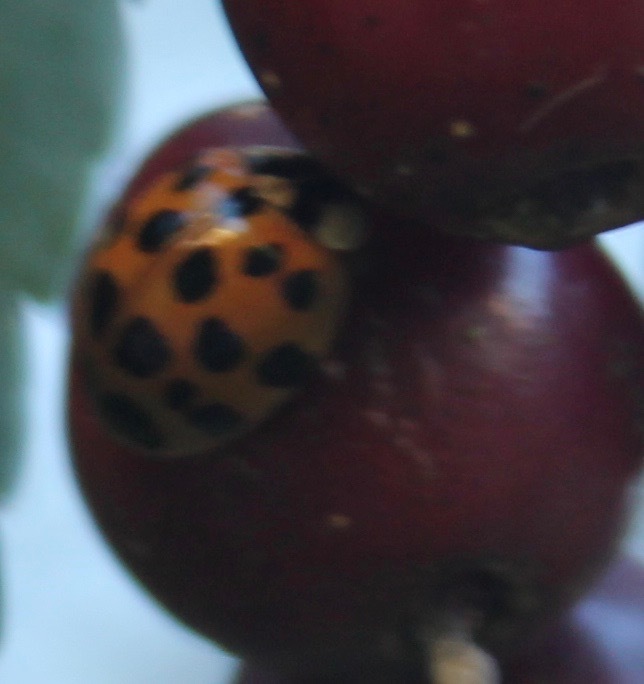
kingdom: Animalia
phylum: Arthropoda
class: Insecta
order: Coleoptera
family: Coccinellidae
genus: Harmonia
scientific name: Harmonia axyridis
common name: Harlequin ladybird
